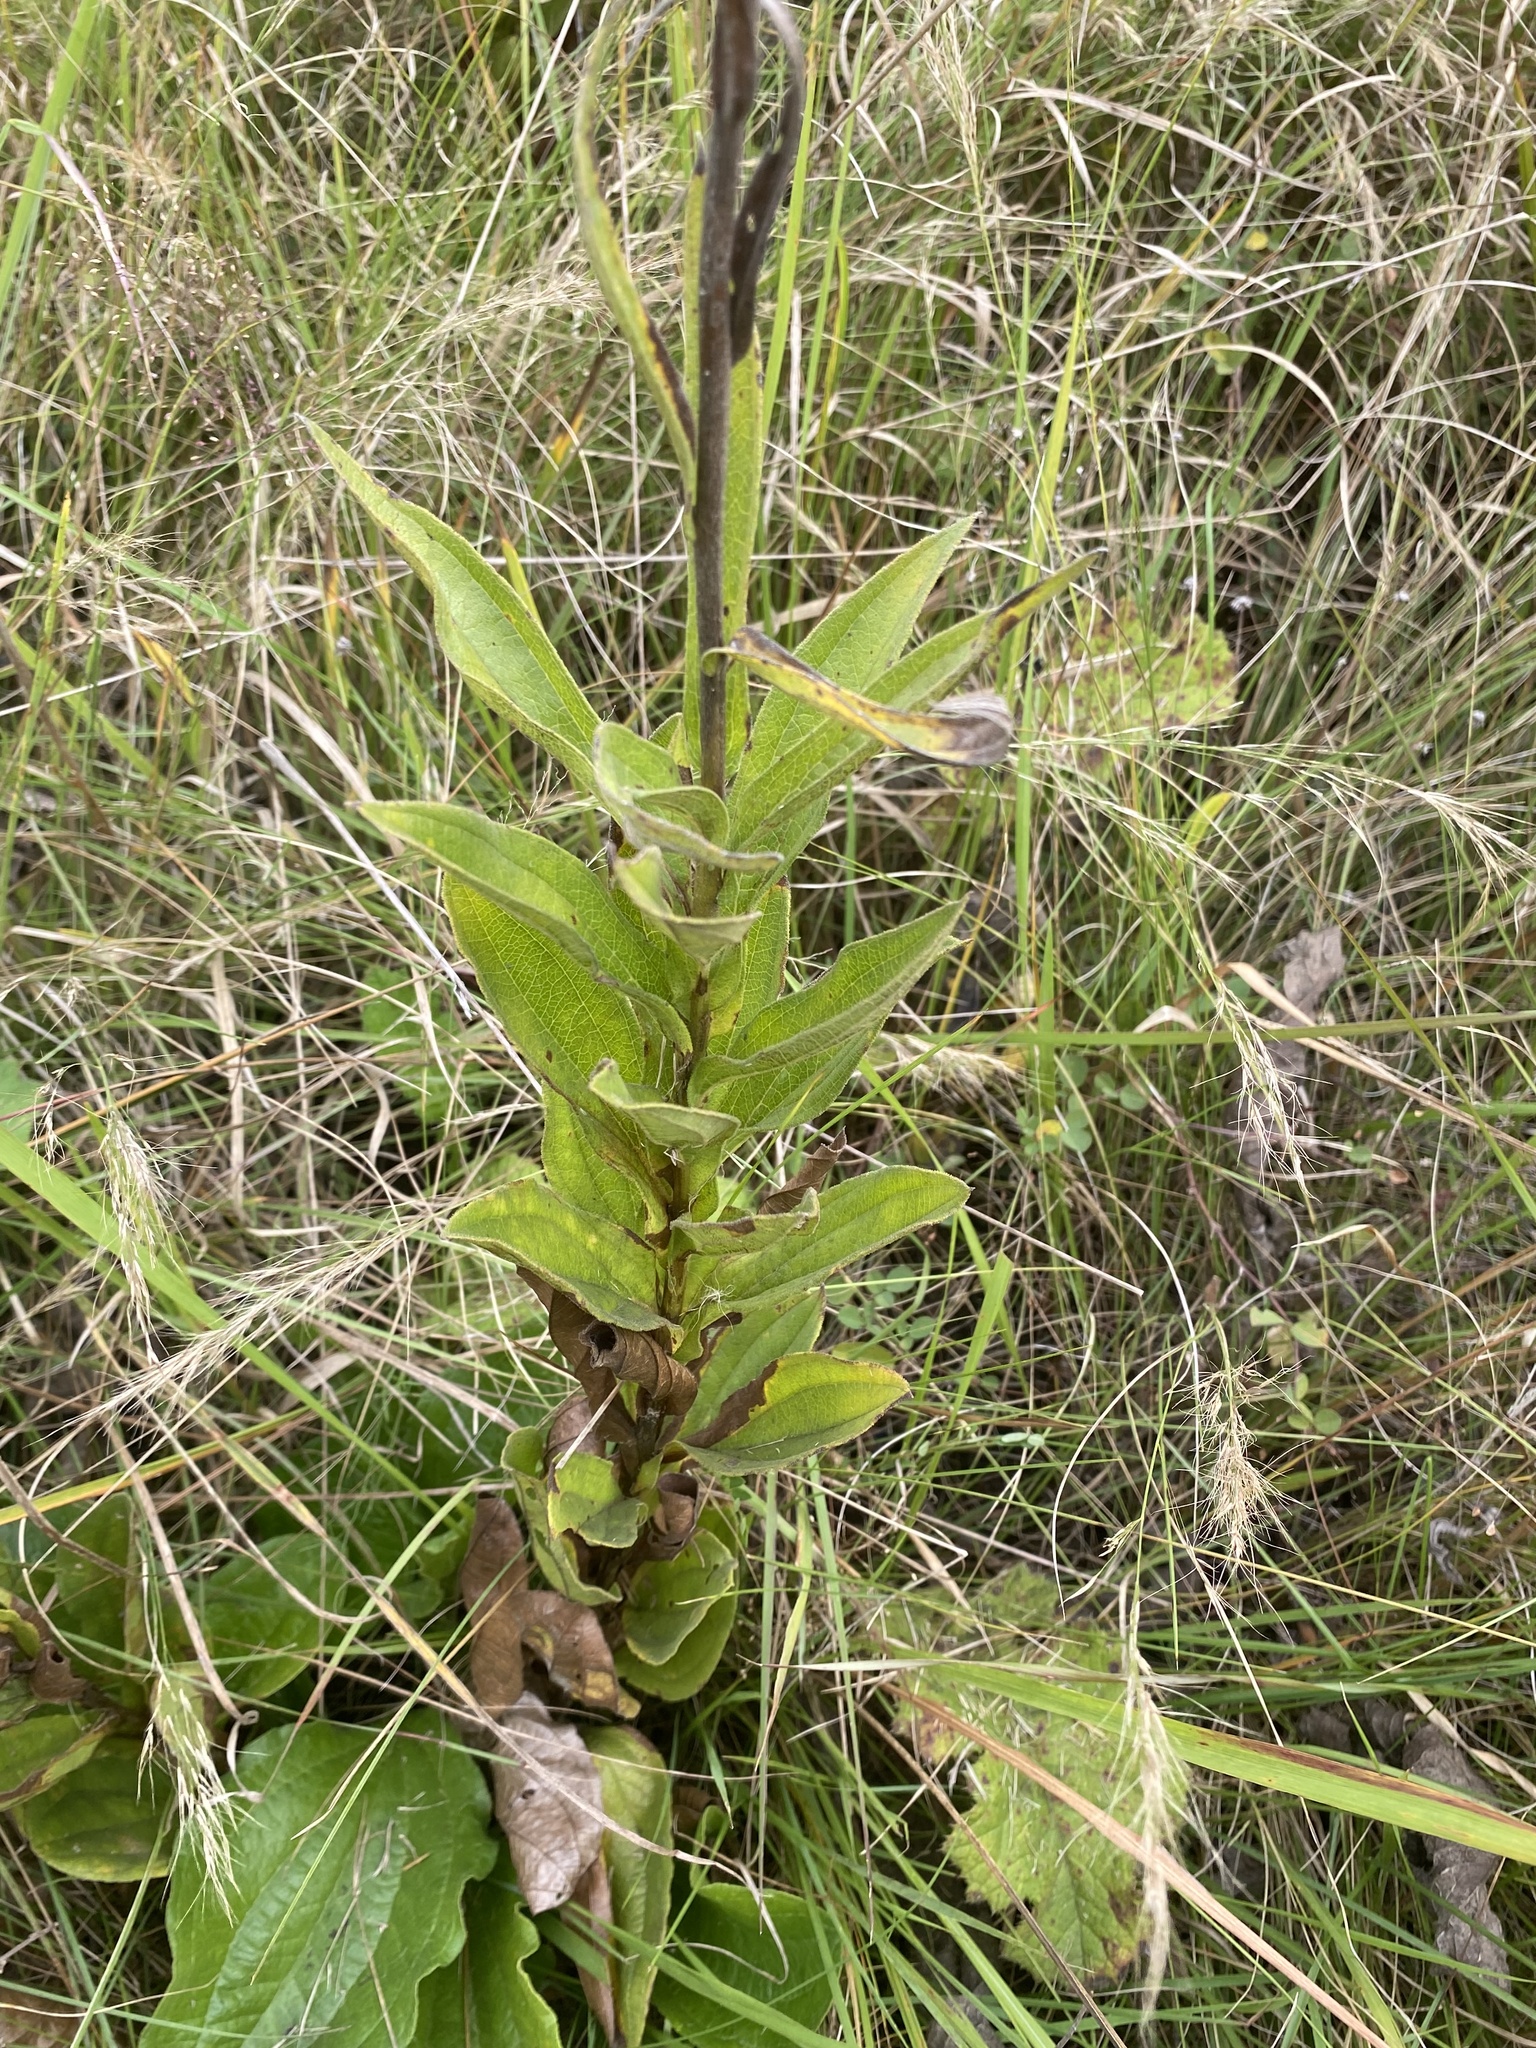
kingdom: Plantae
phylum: Tracheophyta
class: Magnoliopsida
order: Asterales
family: Asteraceae
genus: Helichrysum
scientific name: Helichrysum nudifolium
